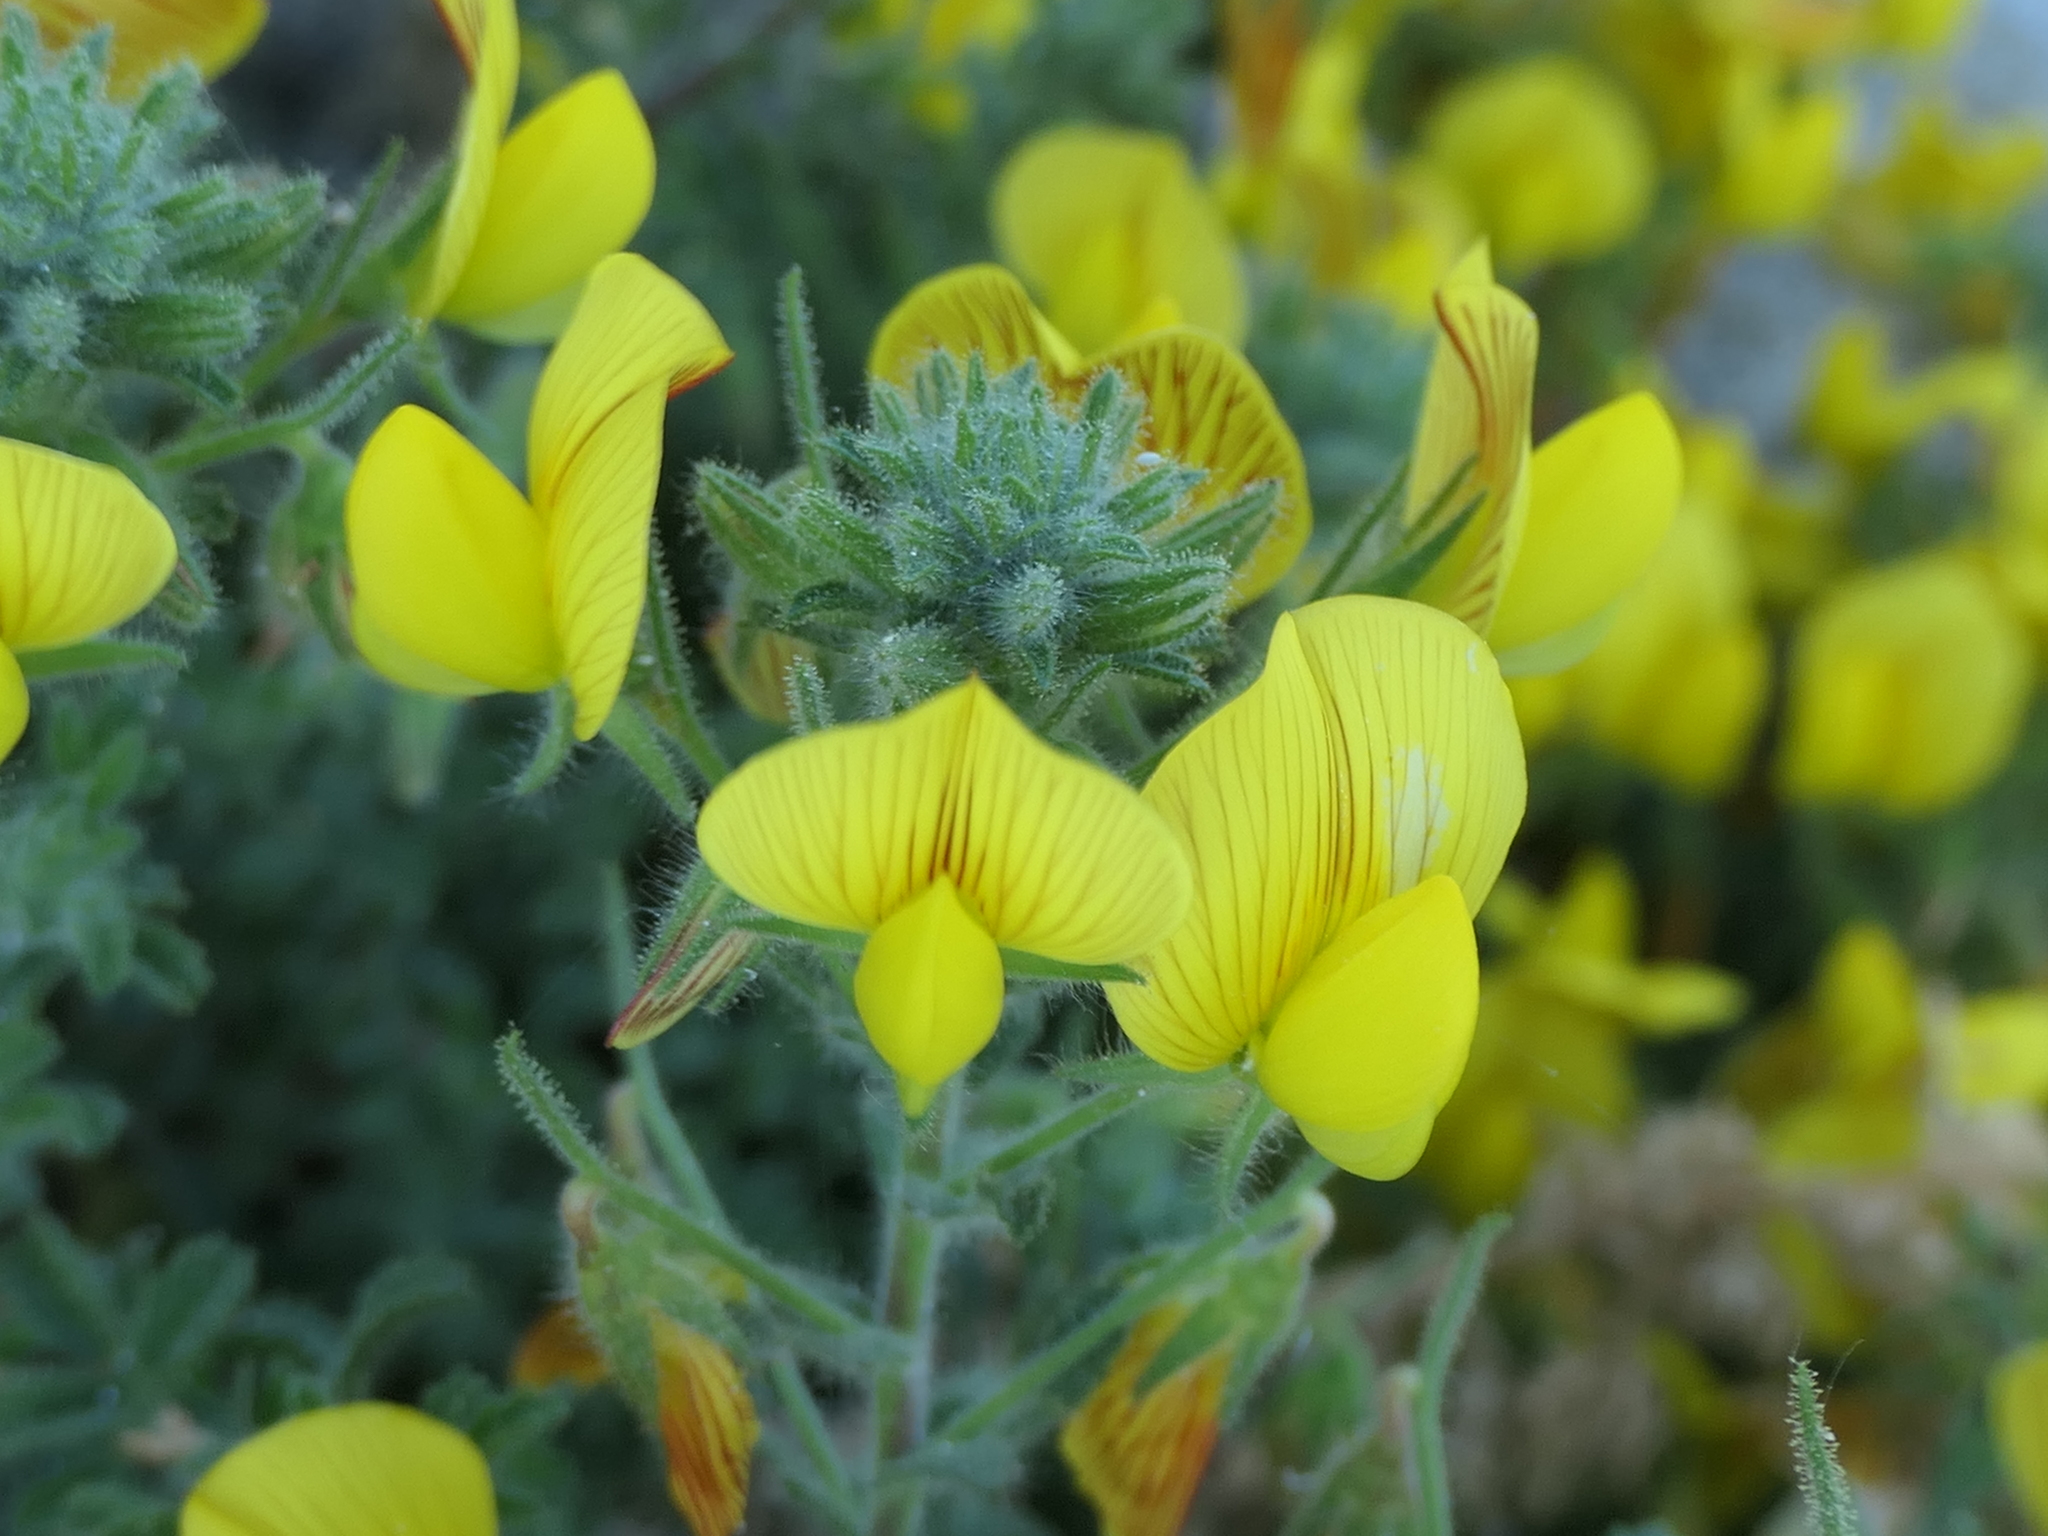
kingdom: Plantae
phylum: Tracheophyta
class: Magnoliopsida
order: Fabales
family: Fabaceae
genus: Ononis
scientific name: Ononis natrix
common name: Yellow restharrow
